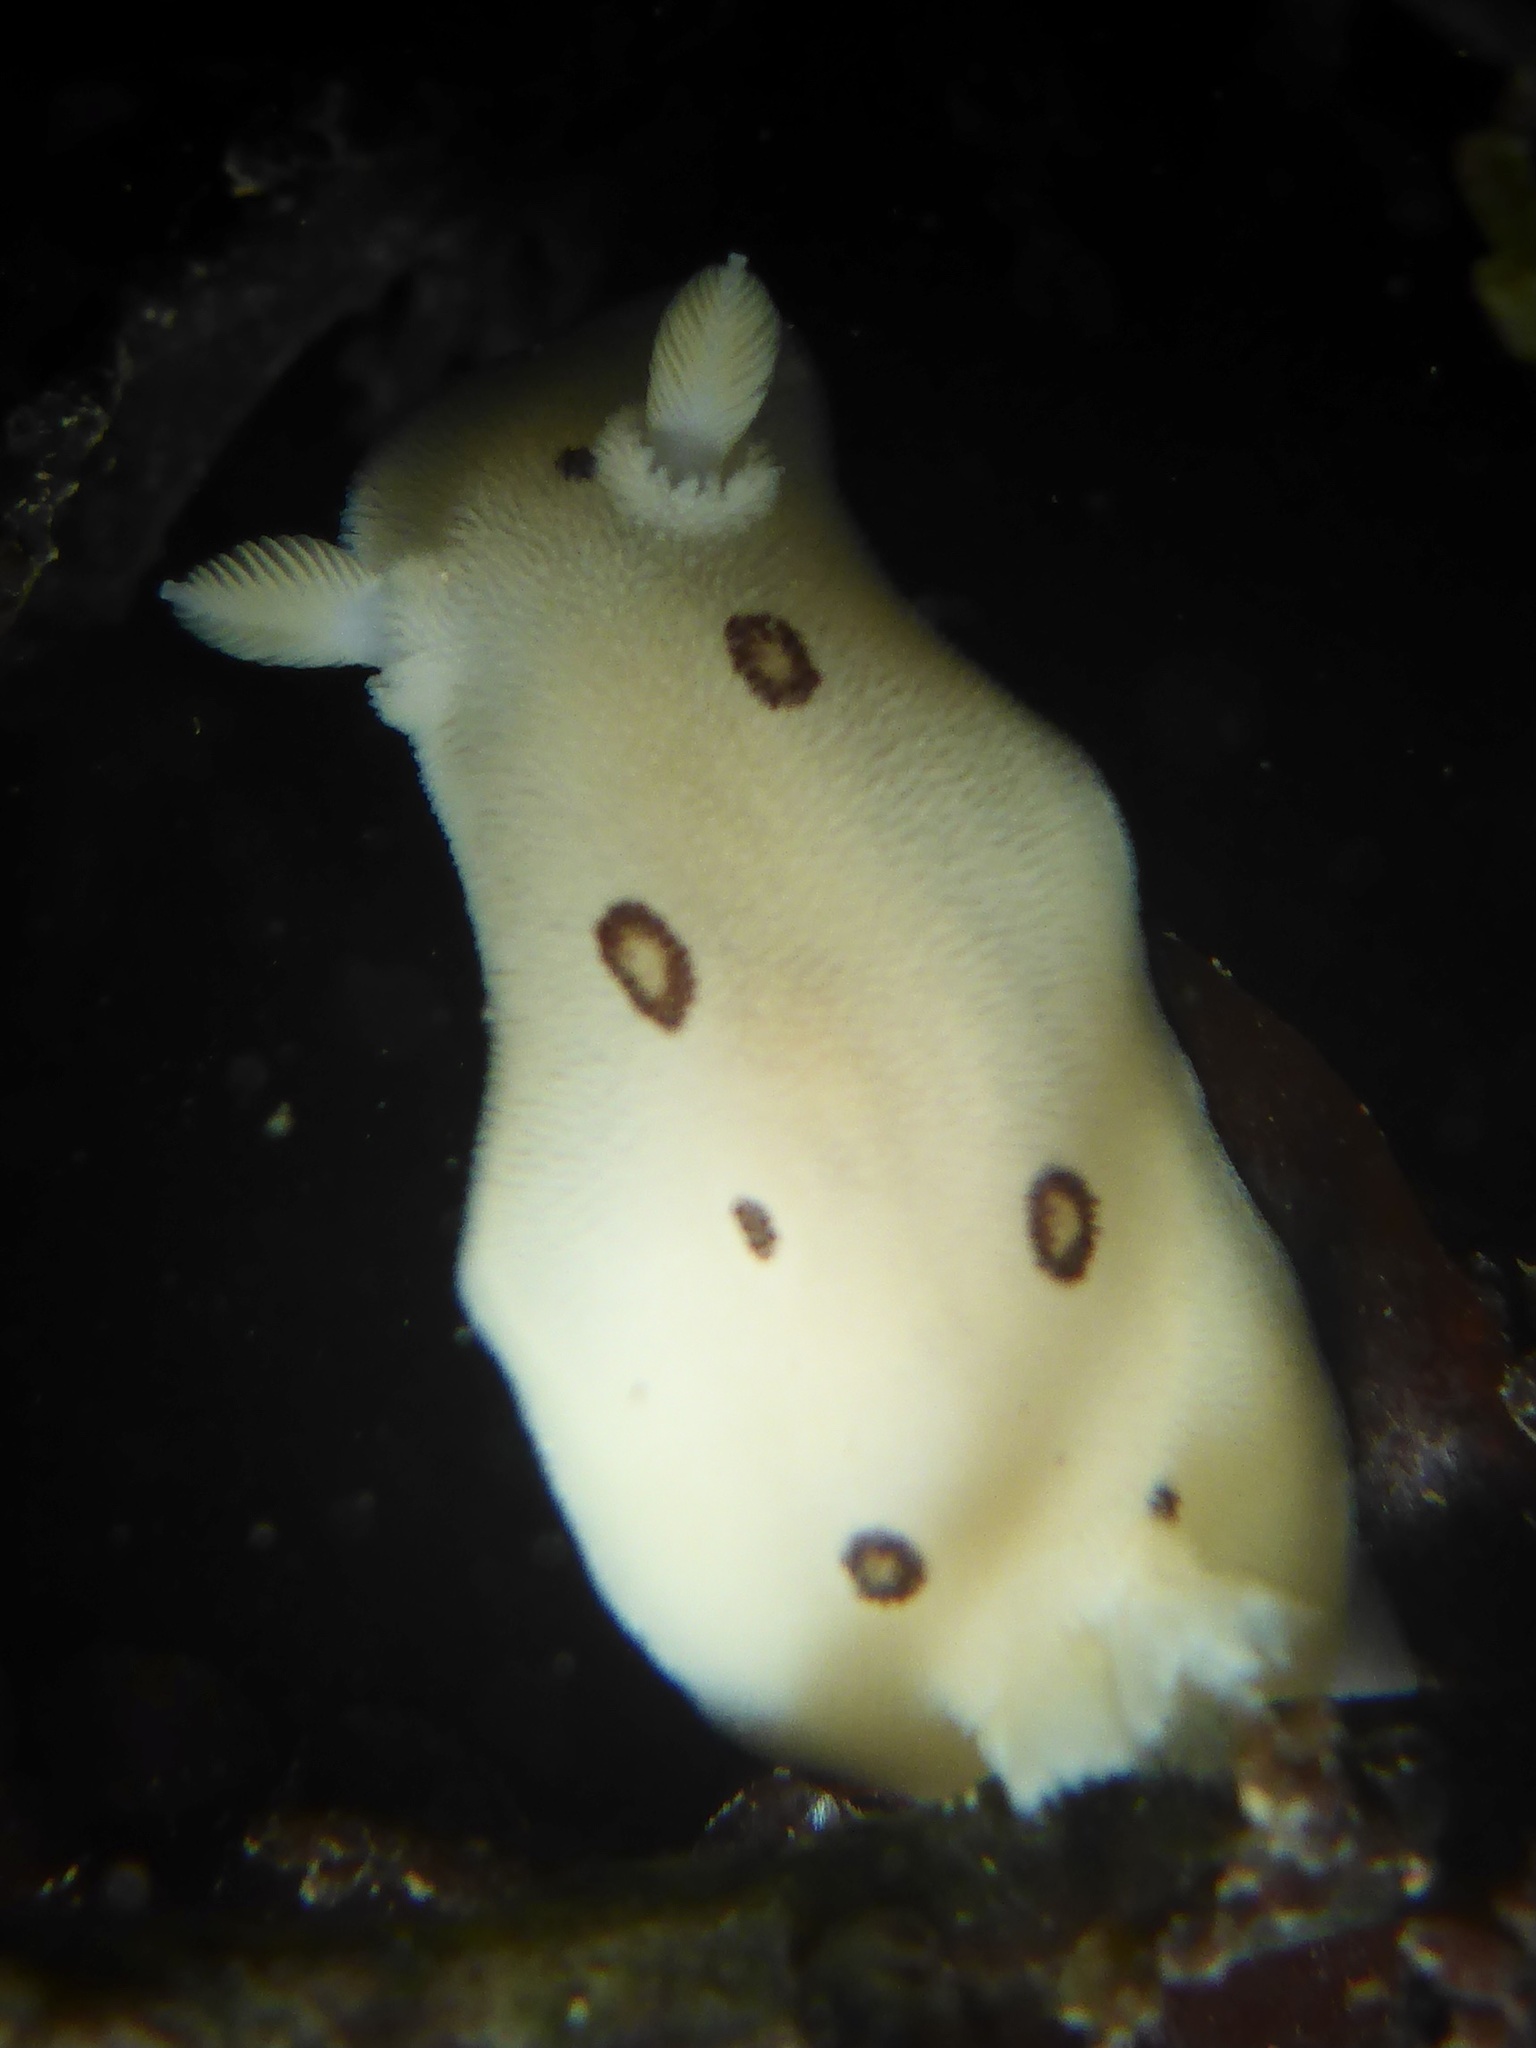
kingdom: Animalia
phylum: Mollusca
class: Gastropoda
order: Nudibranchia
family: Discodorididae
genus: Diaulula
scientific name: Diaulula sandiegensis
